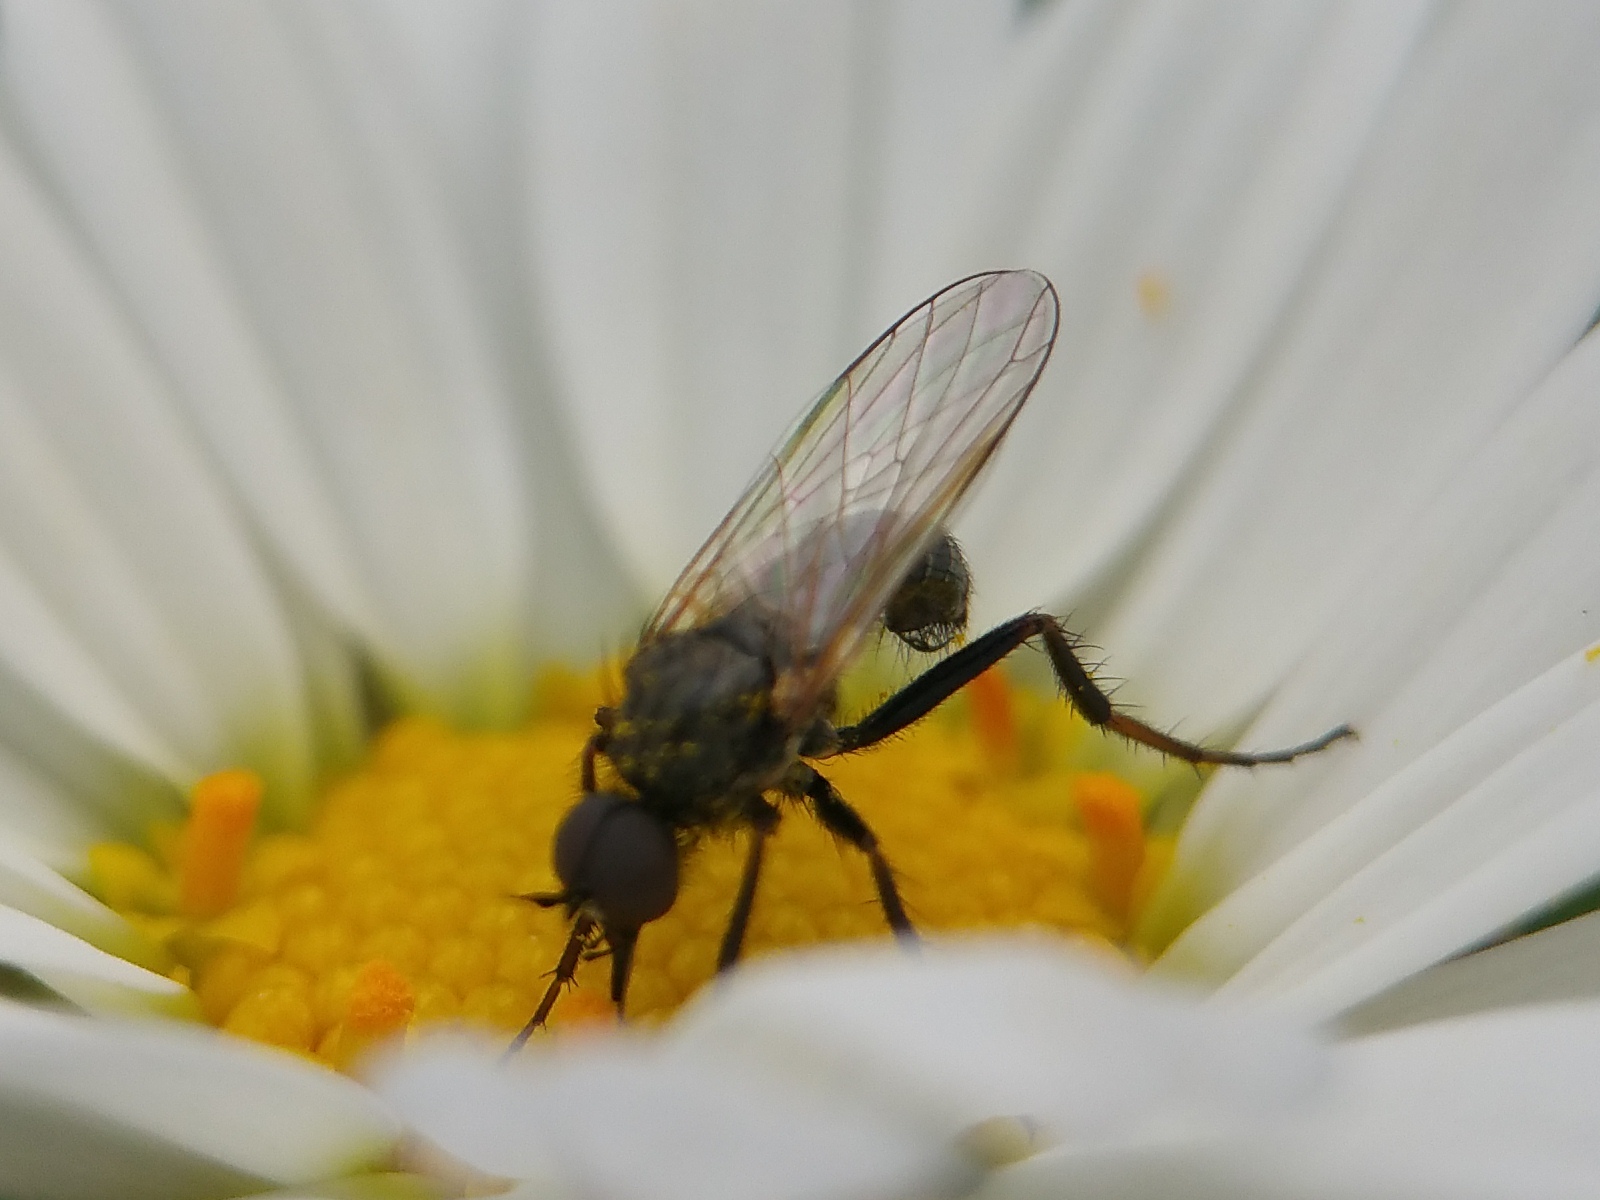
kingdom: Animalia
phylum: Arthropoda
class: Insecta
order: Diptera
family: Empididae
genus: Empis
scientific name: Empis spiralis
